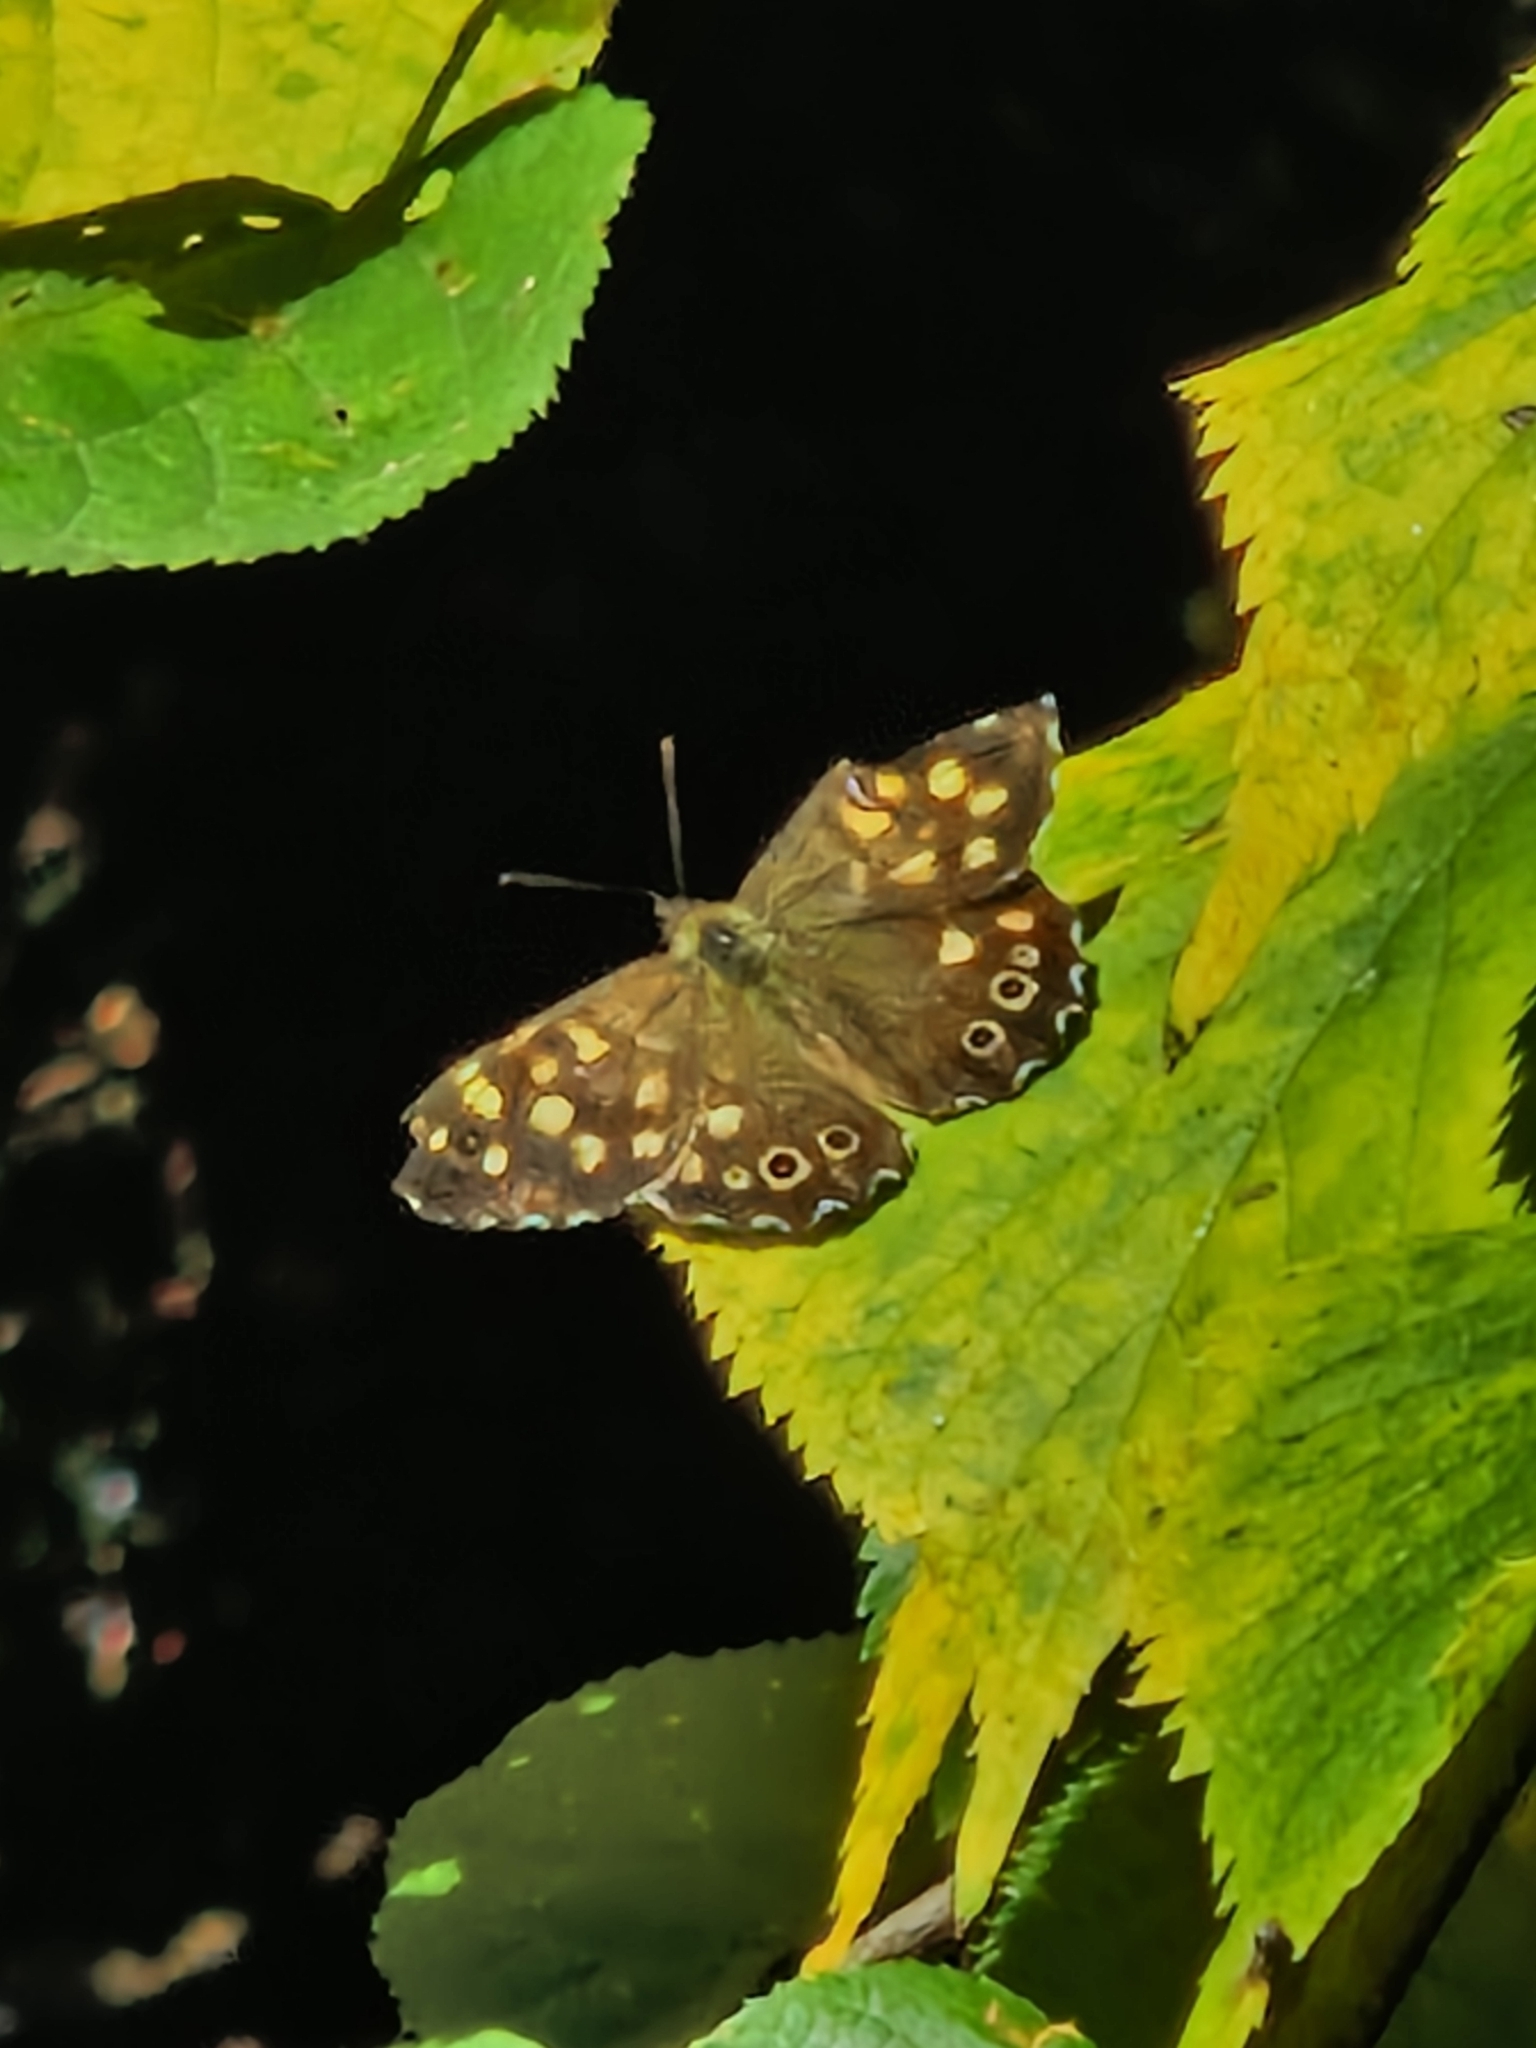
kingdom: Animalia
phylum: Arthropoda
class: Insecta
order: Lepidoptera
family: Nymphalidae
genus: Pararge
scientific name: Pararge aegeria
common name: Speckled wood
